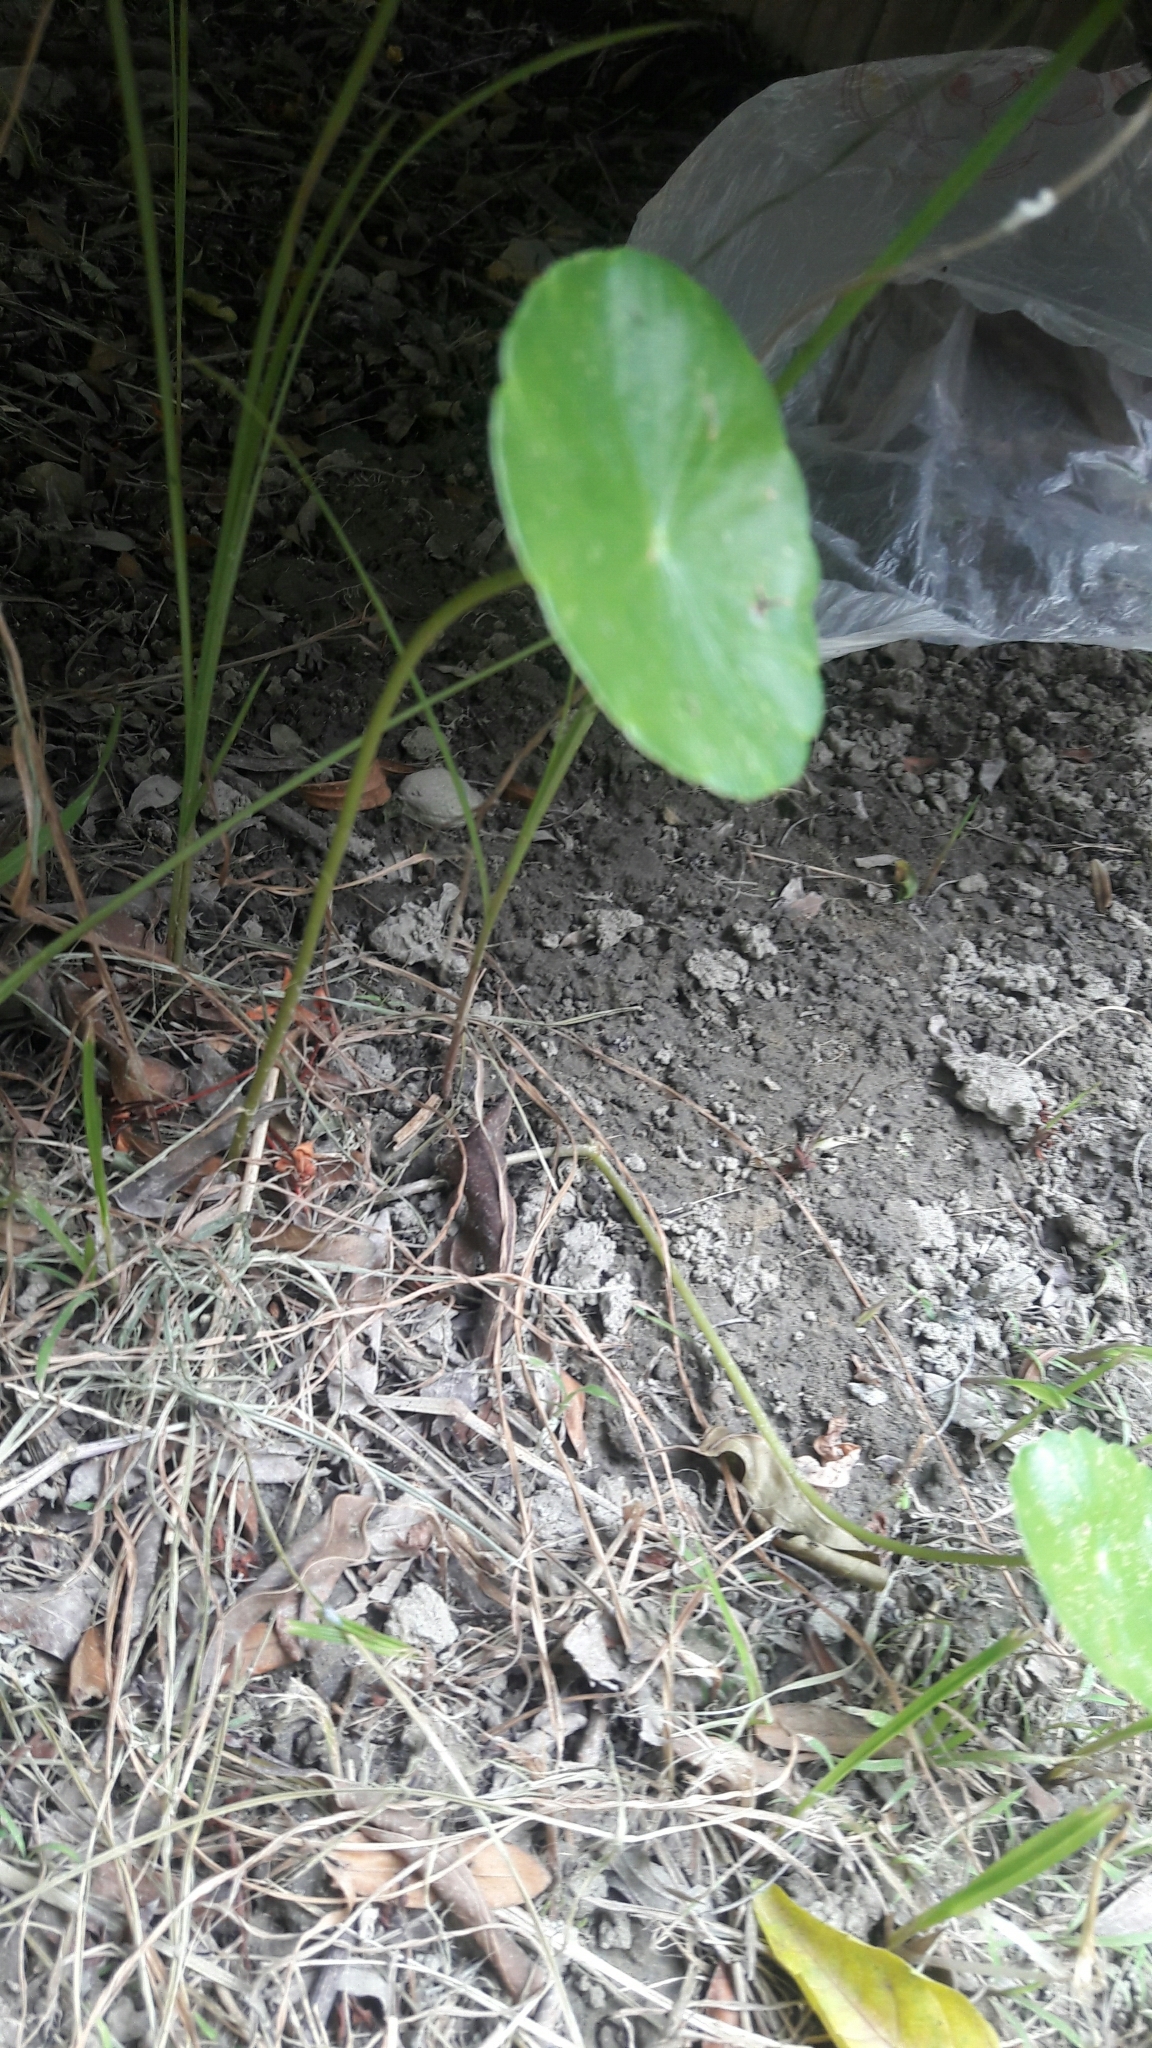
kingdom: Plantae
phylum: Tracheophyta
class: Magnoliopsida
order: Apiales
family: Araliaceae
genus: Hydrocotyle
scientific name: Hydrocotyle verticillata
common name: Whorled marshpennywort
